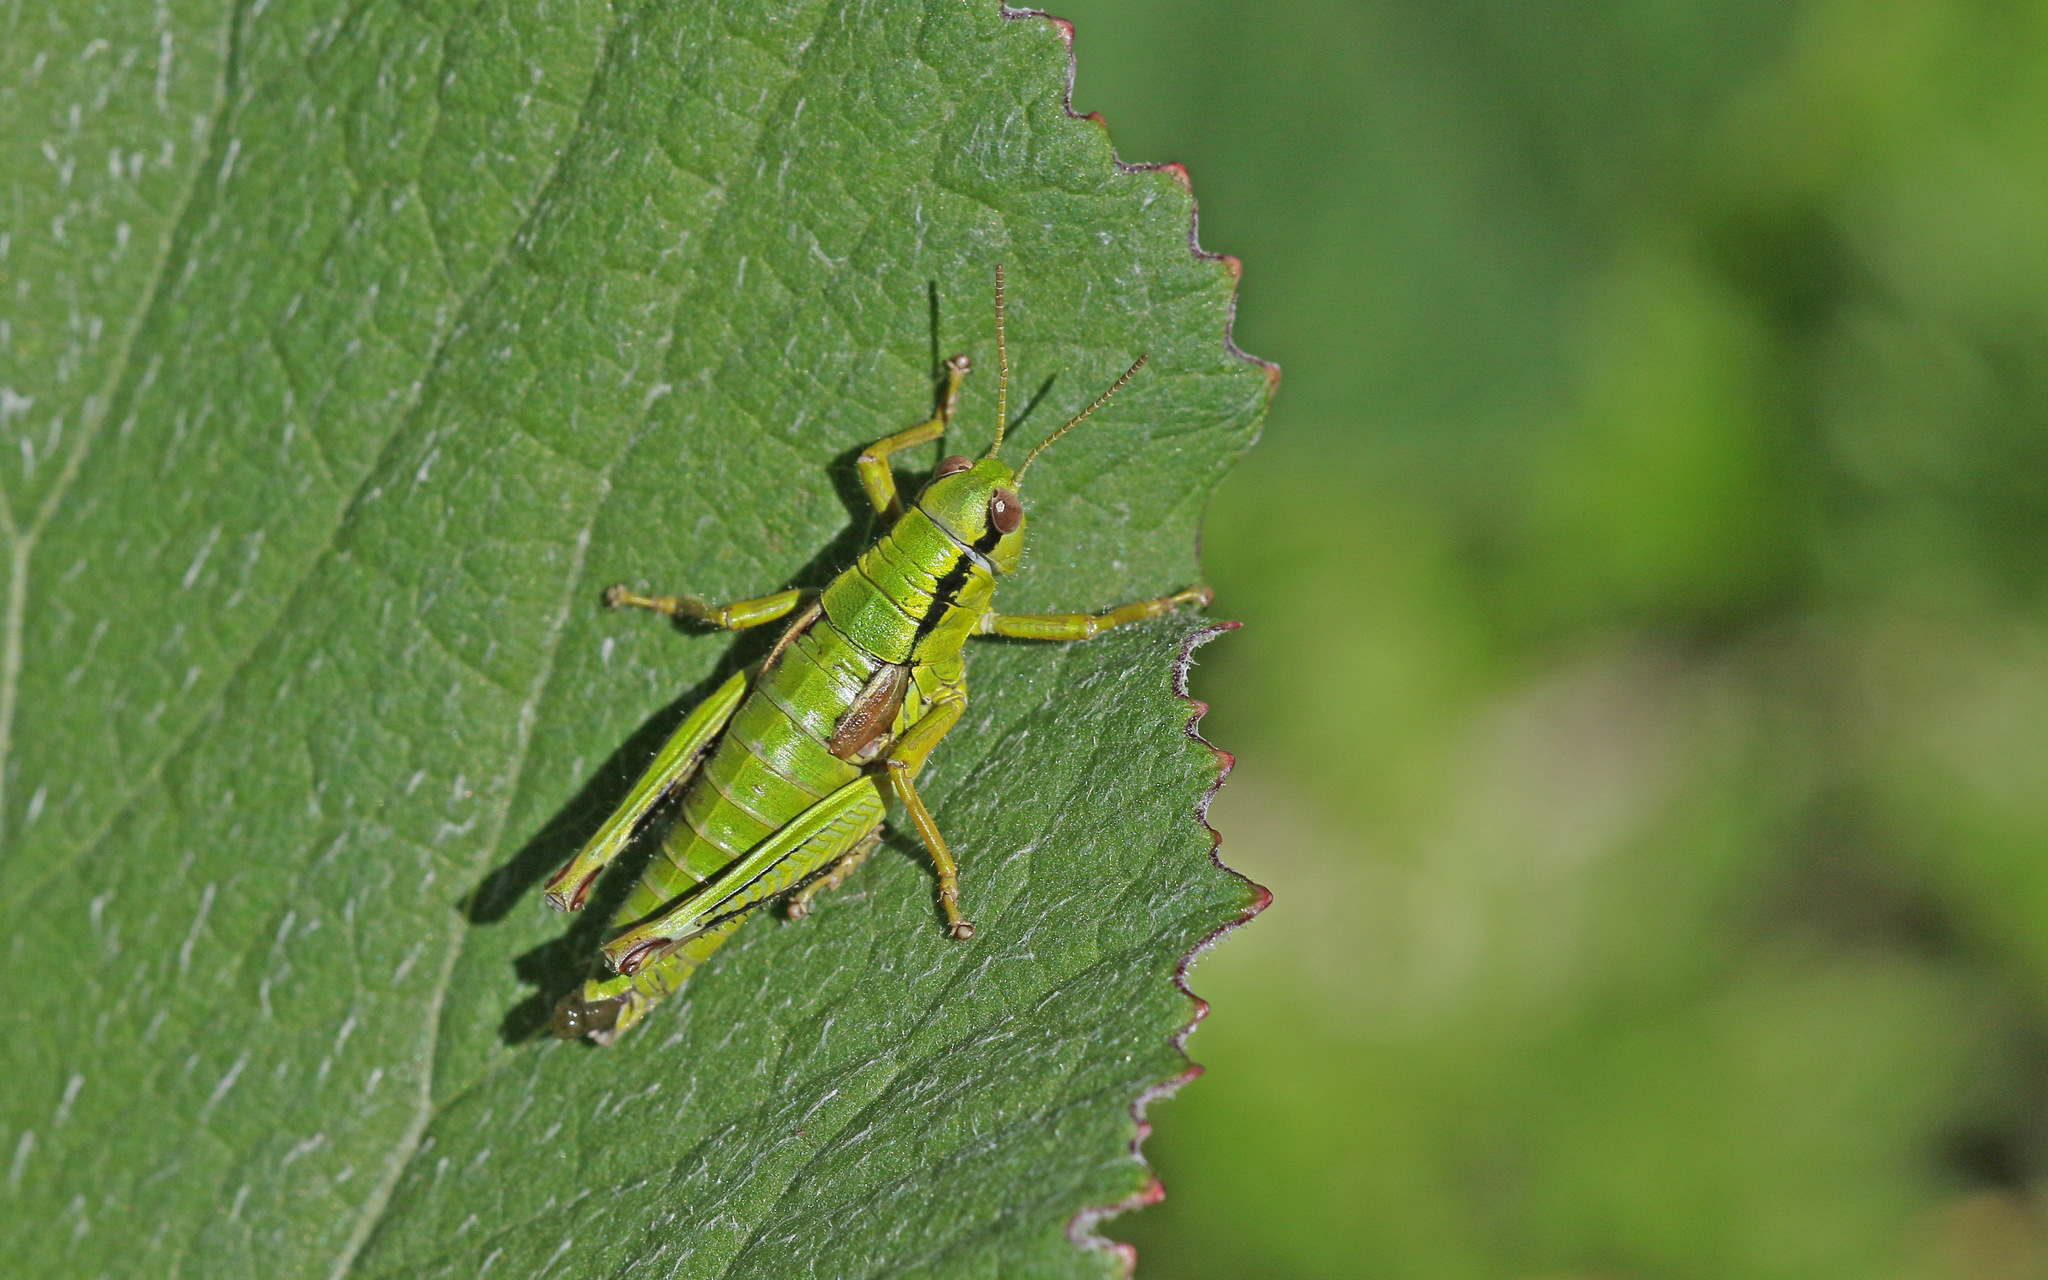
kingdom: Animalia
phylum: Arthropoda
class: Insecta
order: Orthoptera
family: Acrididae
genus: Miramella
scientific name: Miramella alpina
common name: Green mountain grasshopper
